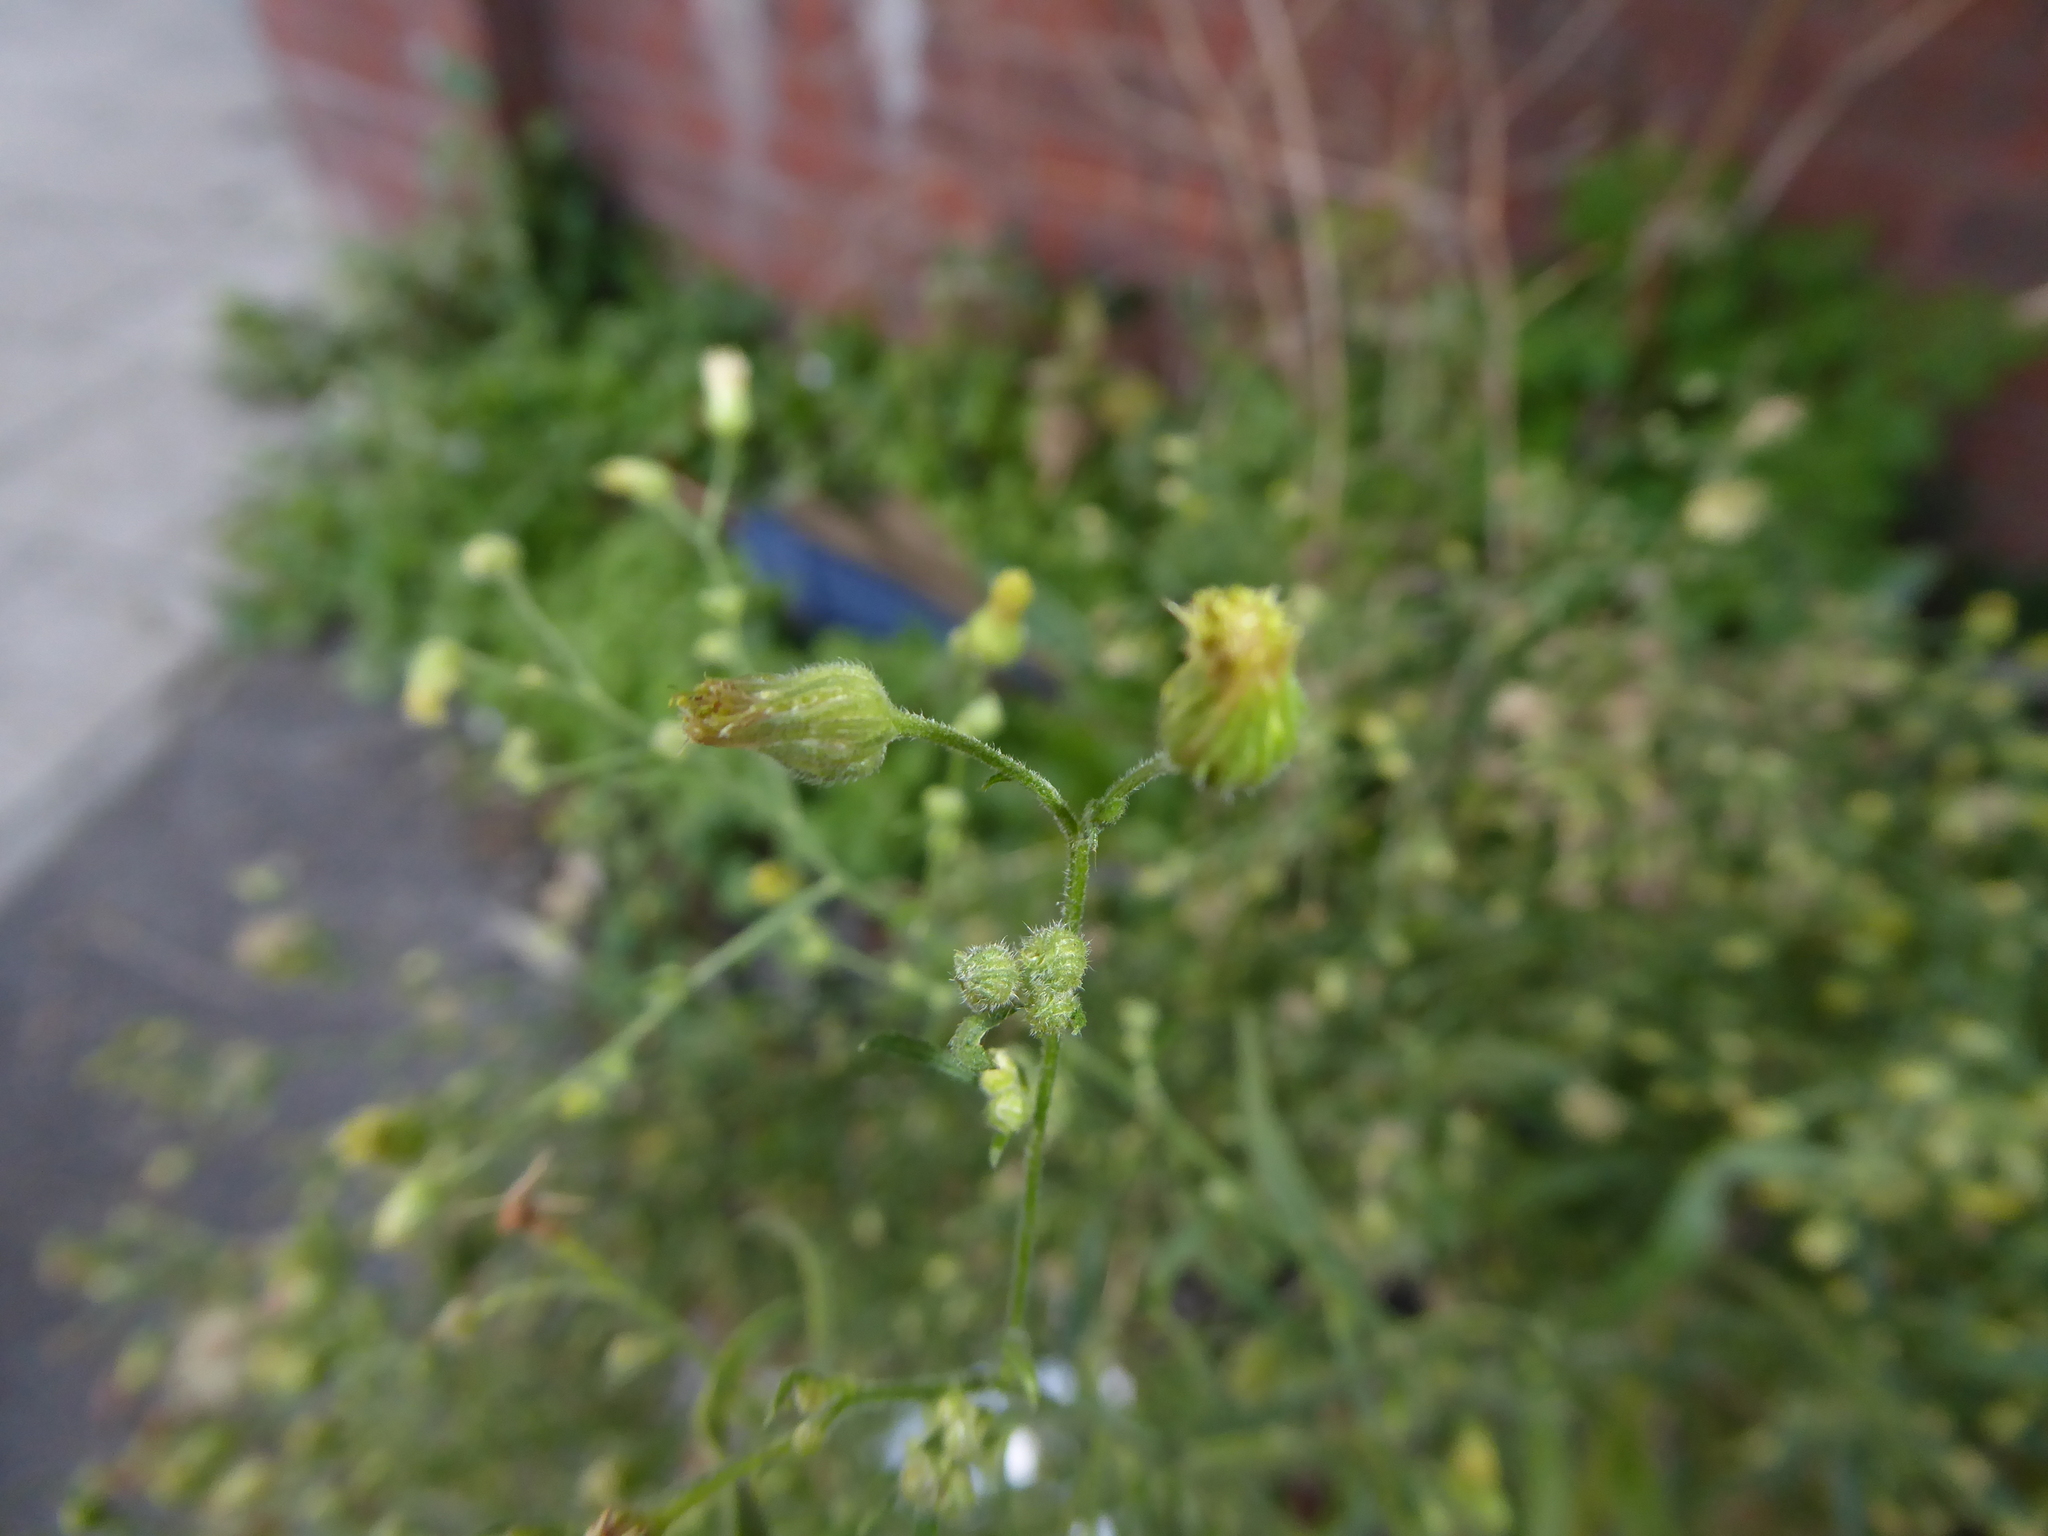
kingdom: Plantae
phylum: Tracheophyta
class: Magnoliopsida
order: Asterales
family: Asteraceae
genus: Erigeron
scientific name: Erigeron sumatrensis
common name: Daisy
